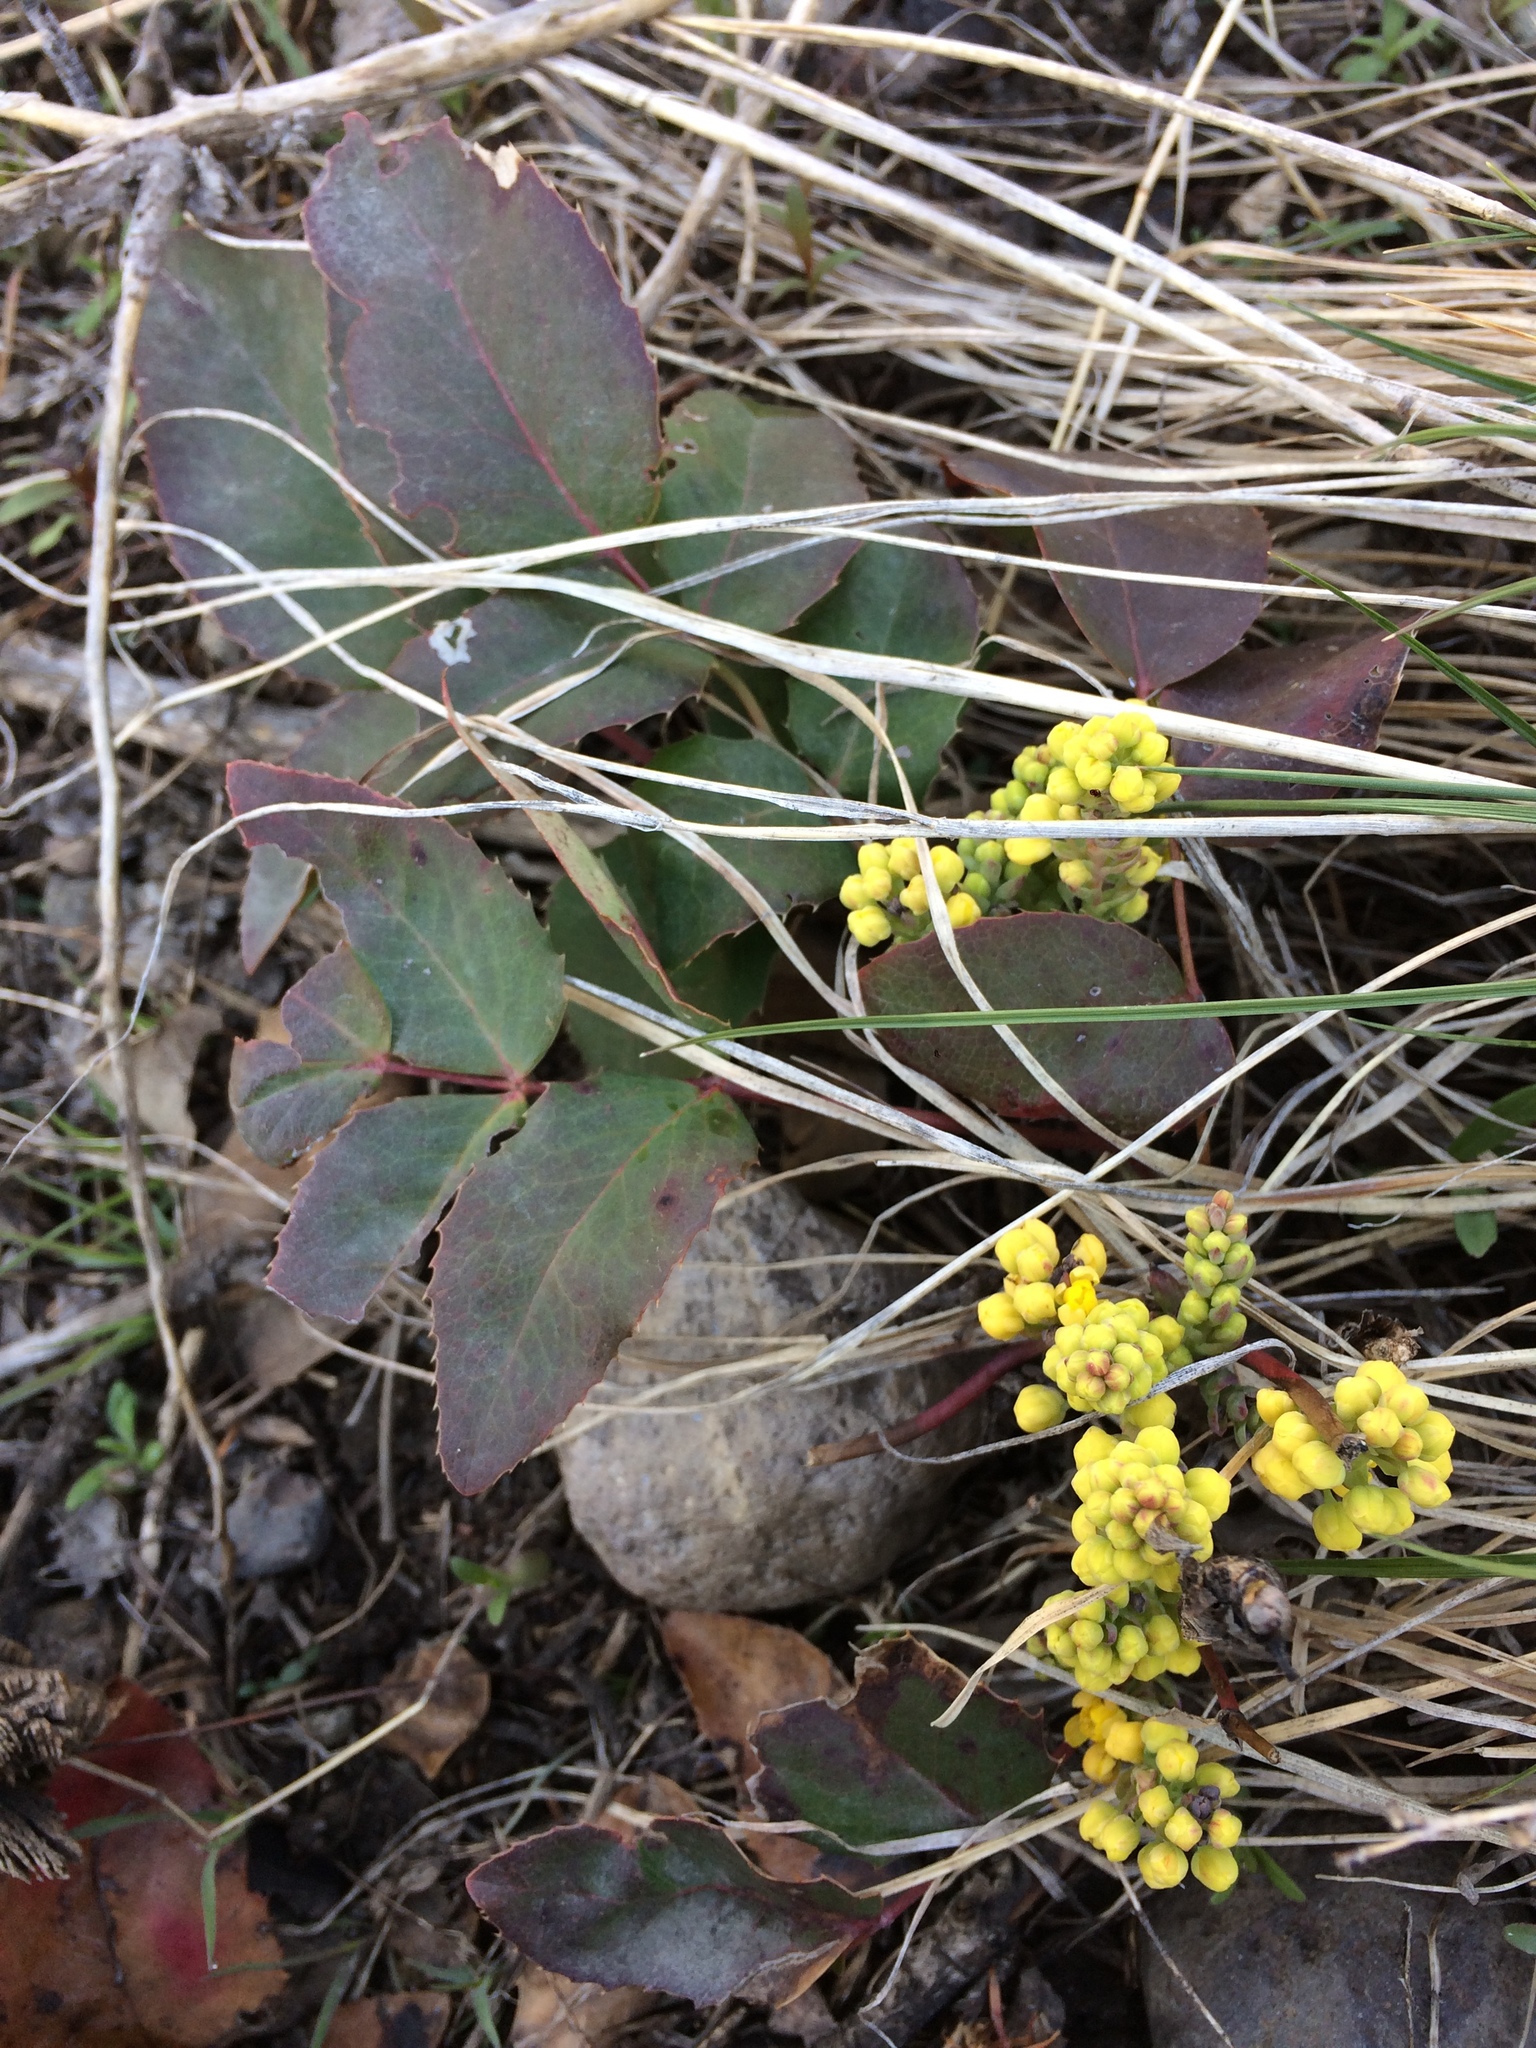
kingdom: Plantae
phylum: Tracheophyta
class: Magnoliopsida
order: Ranunculales
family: Berberidaceae
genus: Mahonia
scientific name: Mahonia repens
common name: Creeping oregon-grape
